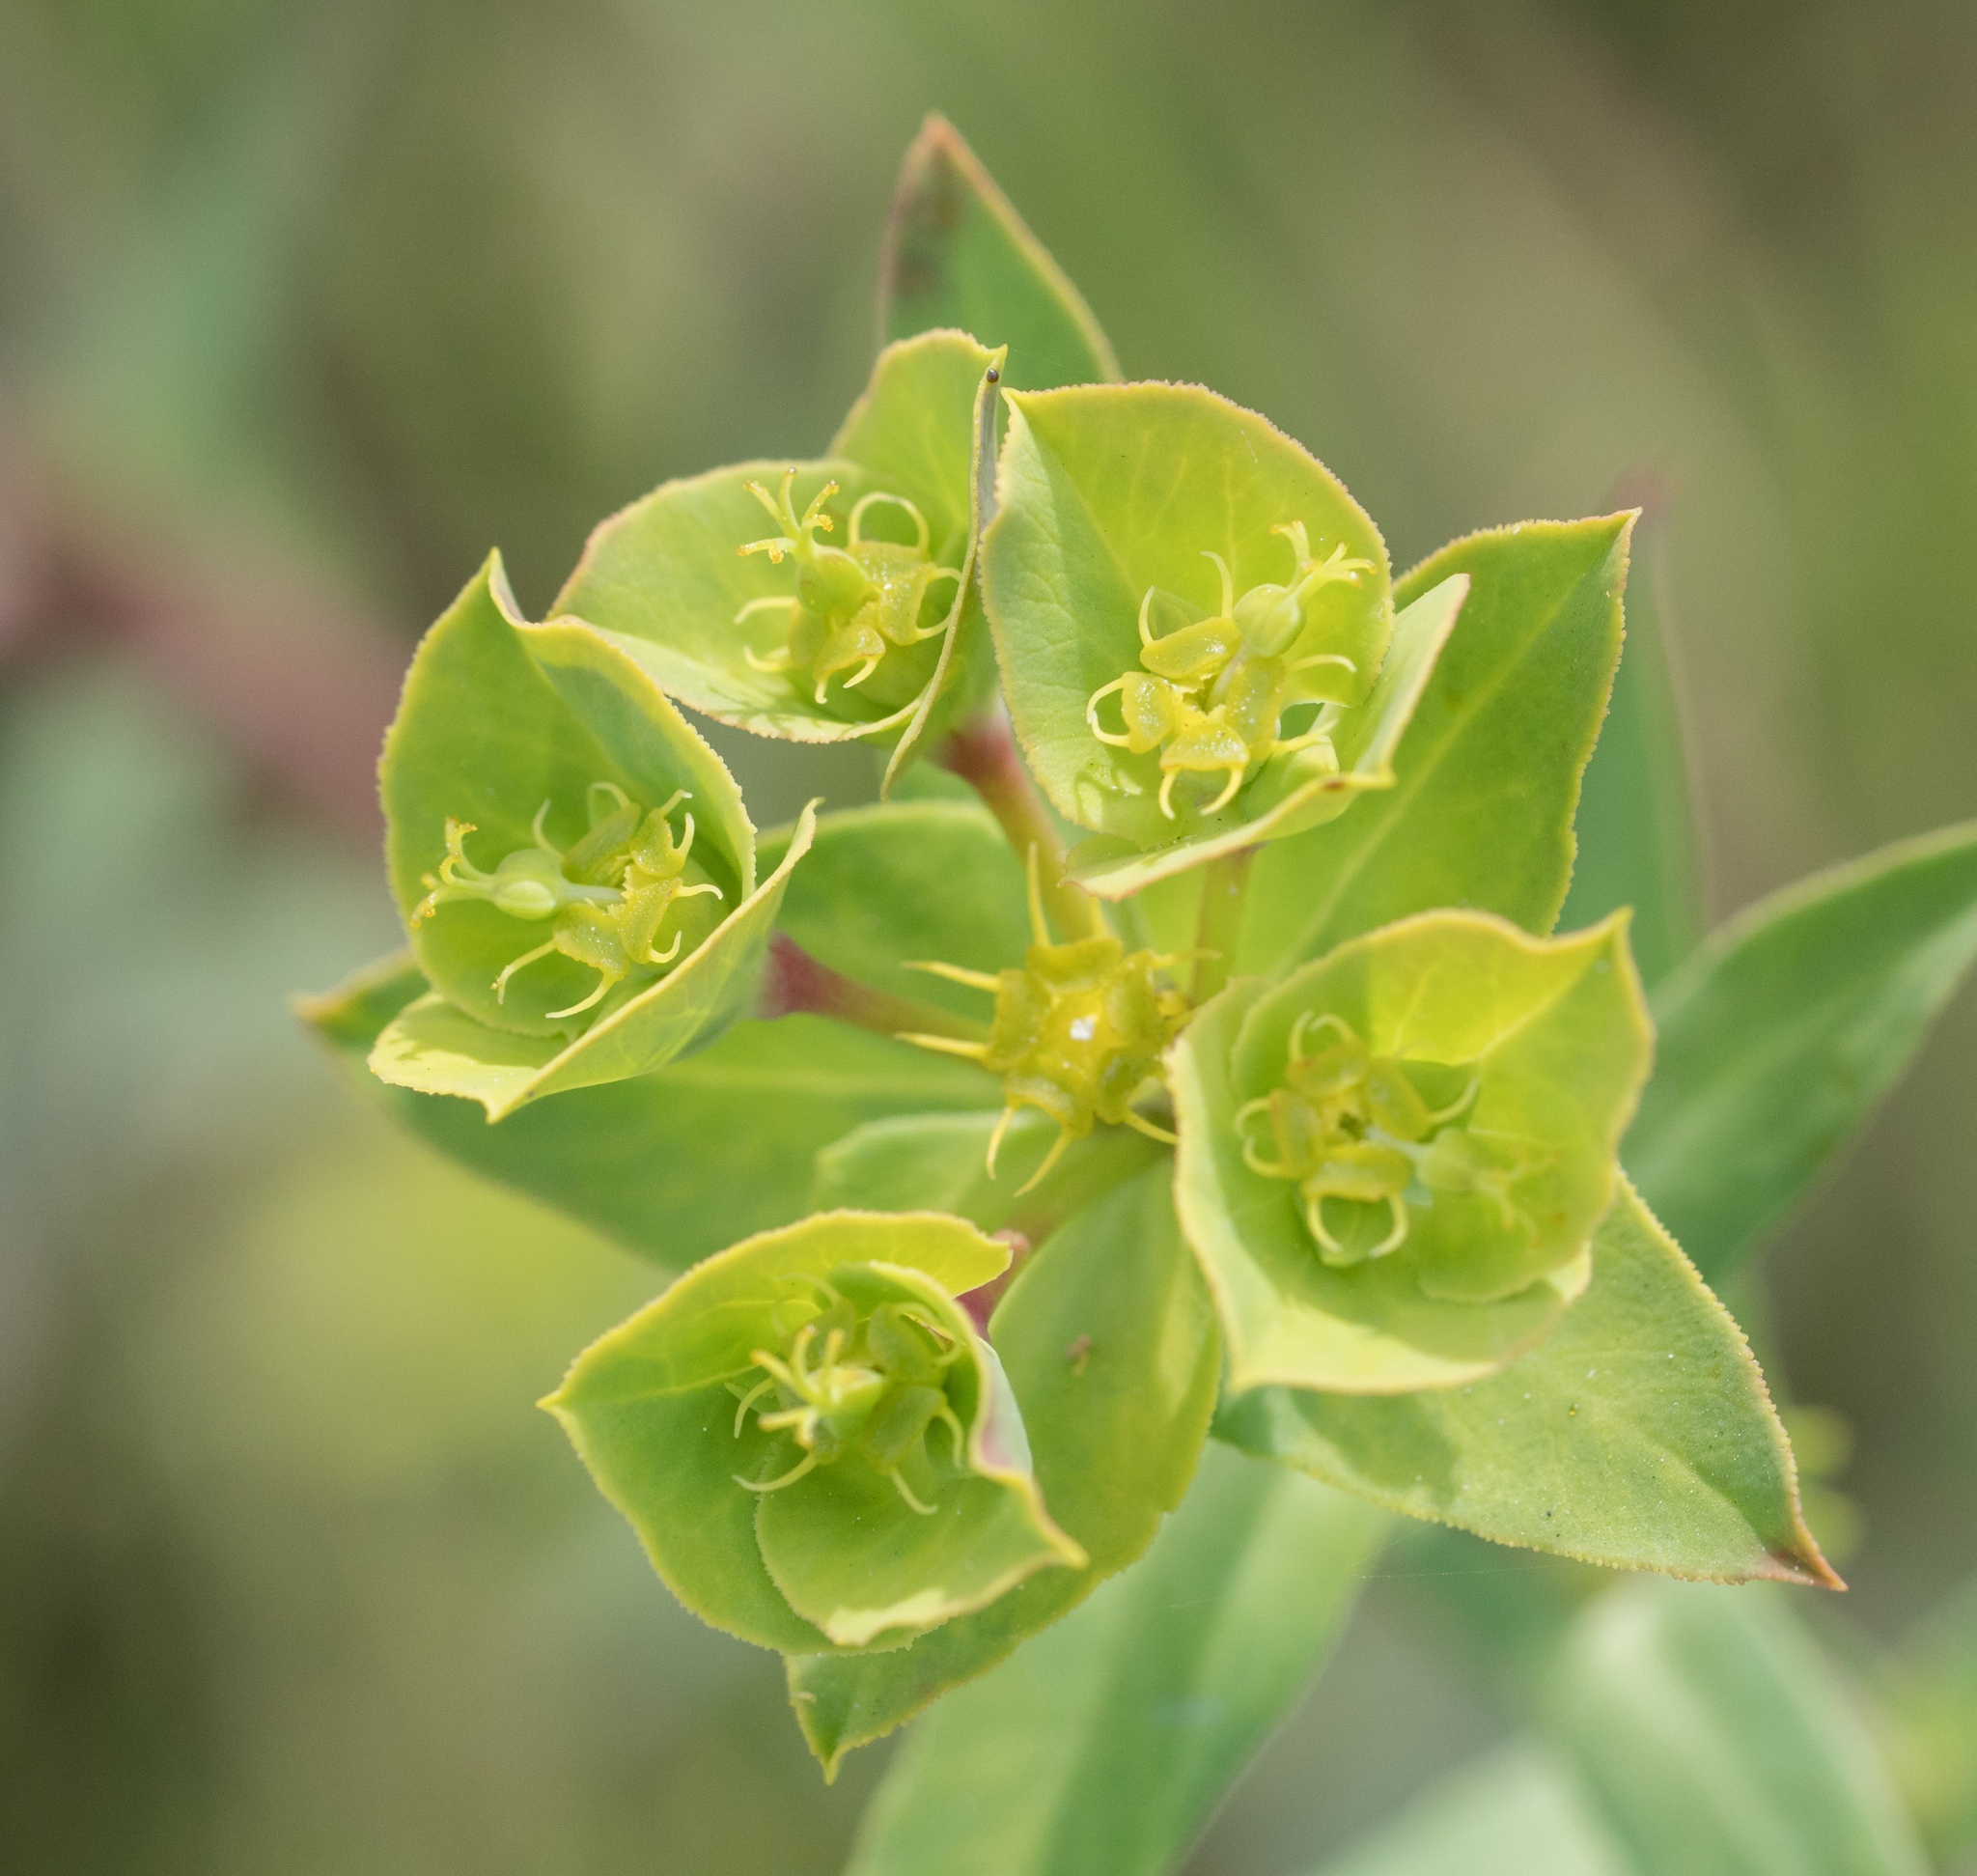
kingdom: Plantae
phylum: Tracheophyta
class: Magnoliopsida
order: Malpighiales
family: Euphorbiaceae
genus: Euphorbia
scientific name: Euphorbia terracina
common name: Geraldton carnation weed
